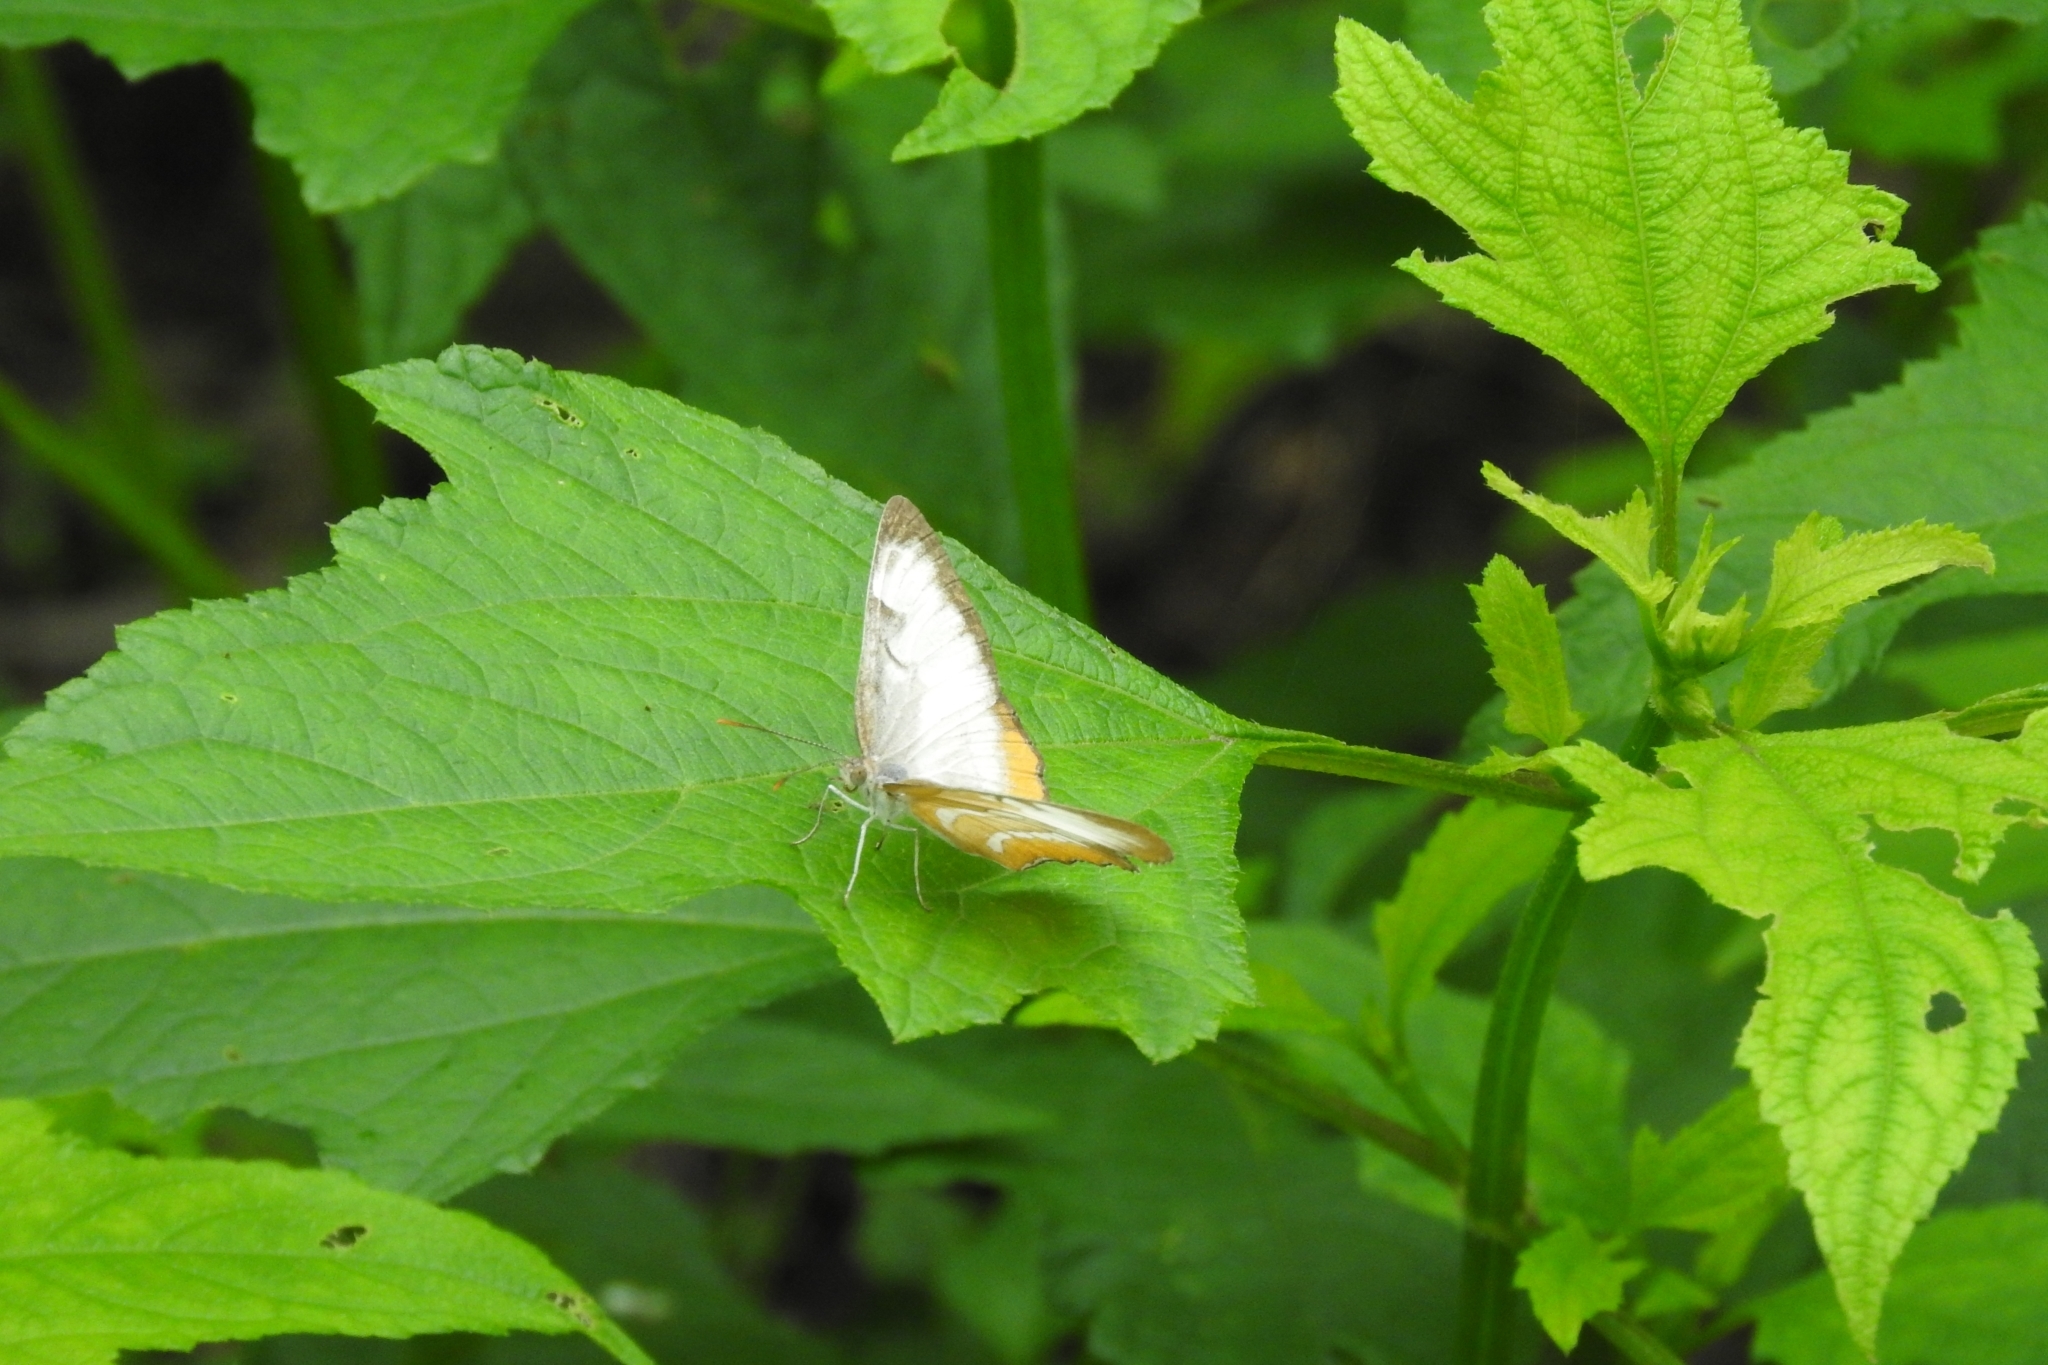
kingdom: Animalia
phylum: Arthropoda
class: Insecta
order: Lepidoptera
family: Nymphalidae
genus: Mestra
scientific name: Mestra amymone
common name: Common mestra
